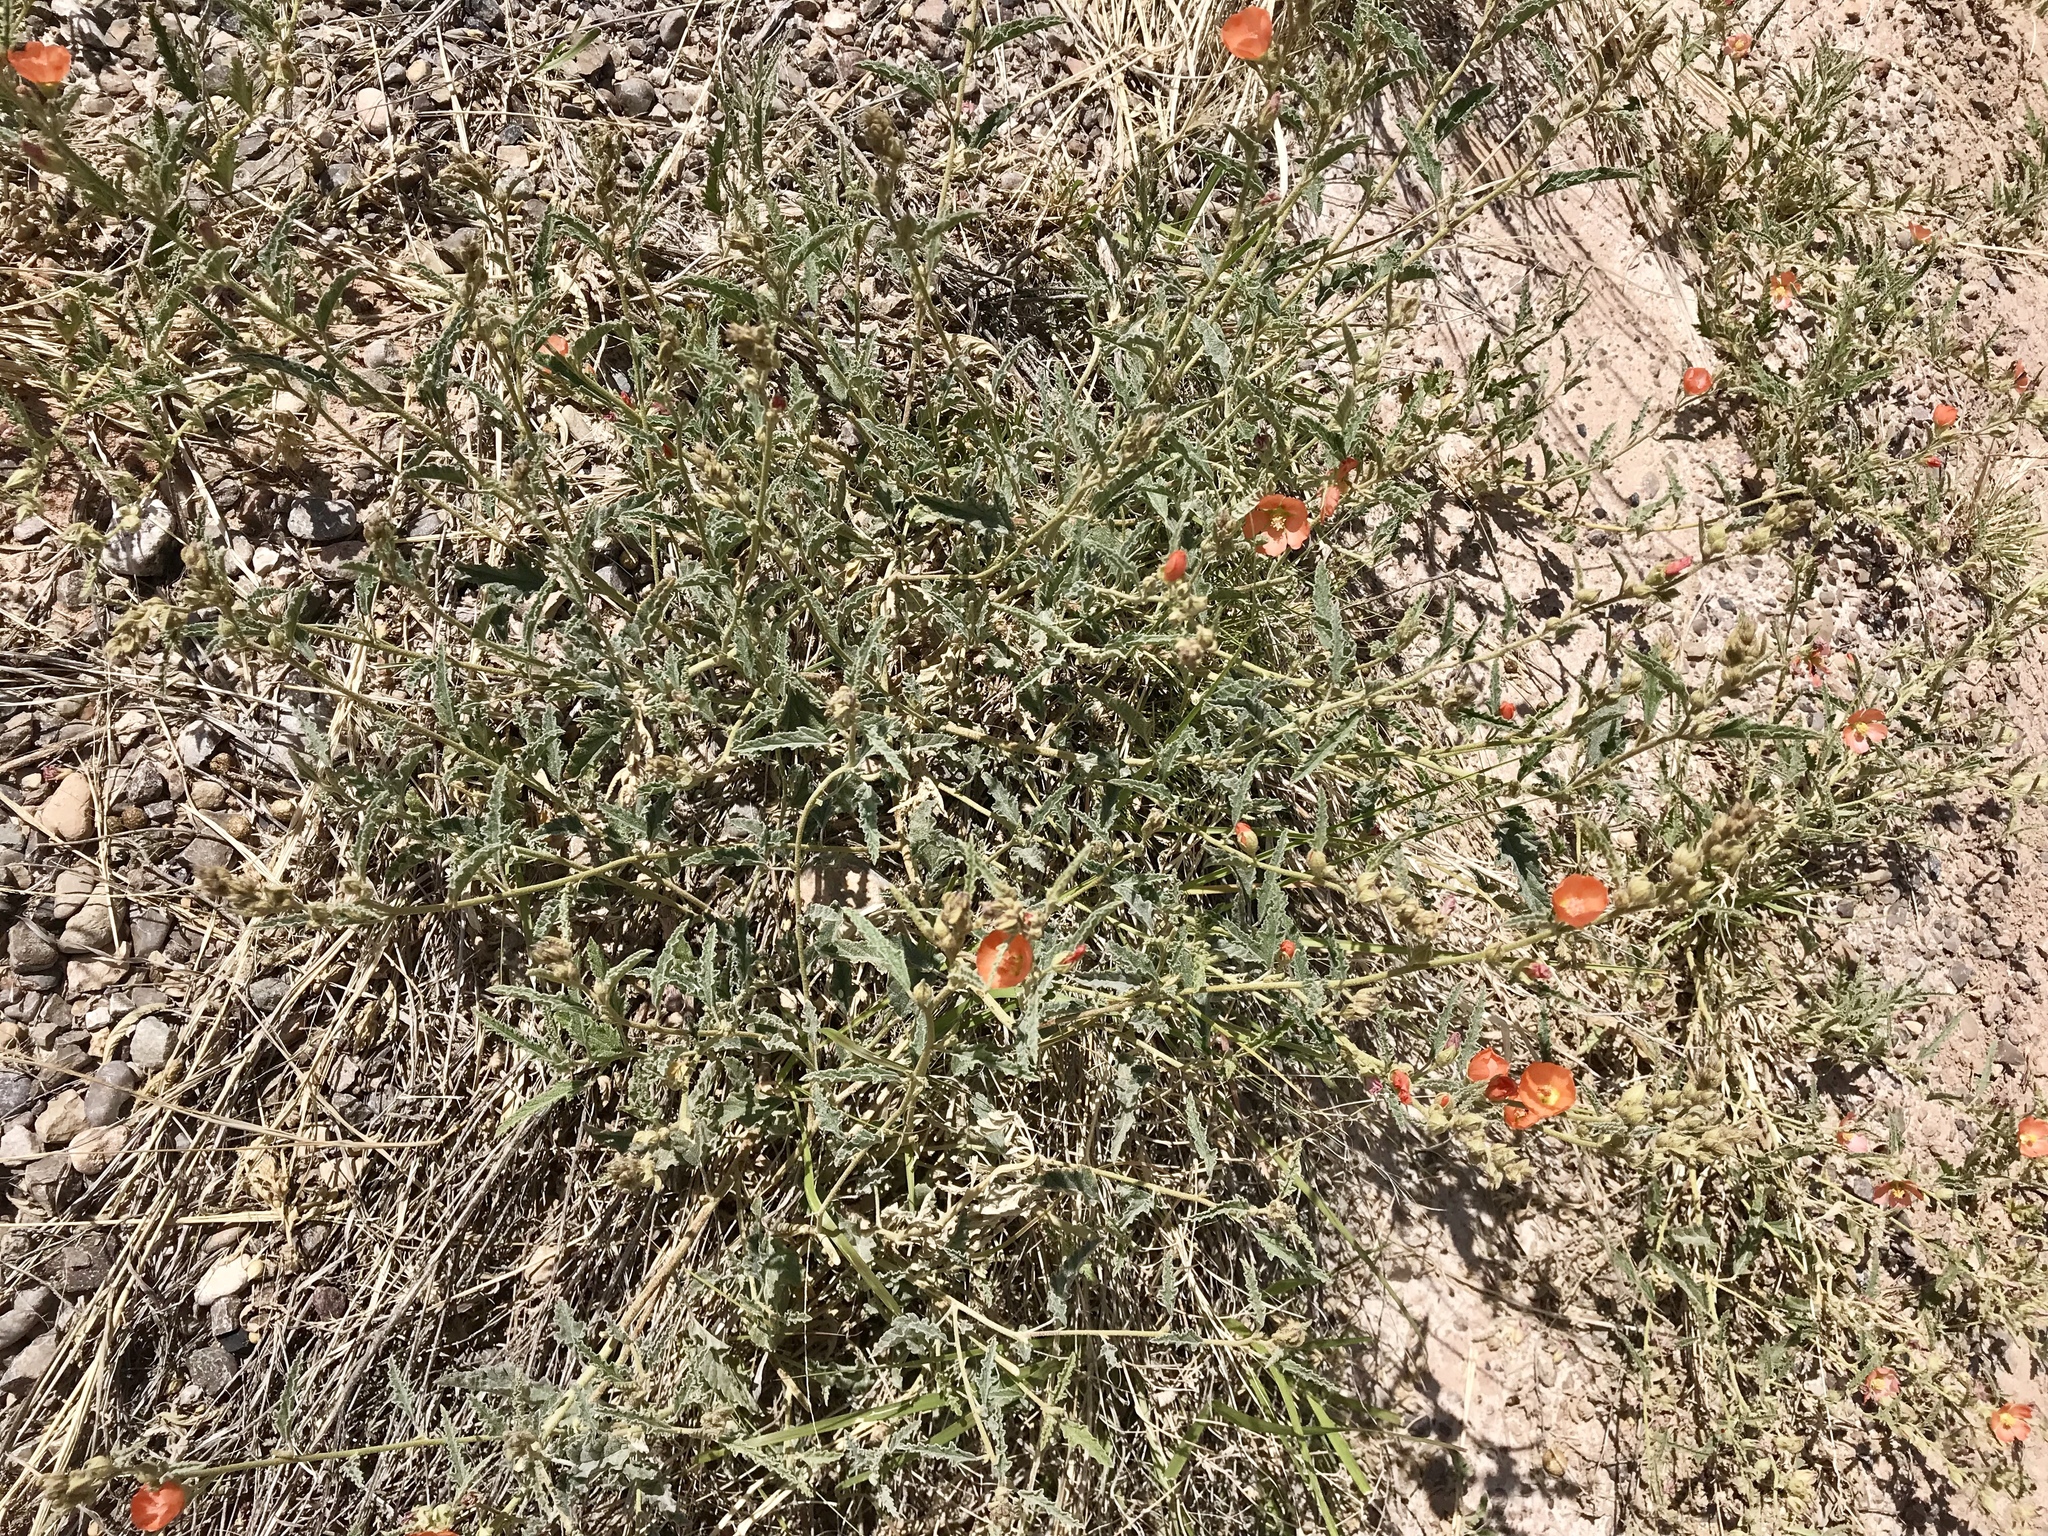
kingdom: Plantae
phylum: Tracheophyta
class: Magnoliopsida
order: Malvales
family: Malvaceae
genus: Sphaeralcea
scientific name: Sphaeralcea angustifolia
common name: Copper globe-mallow
